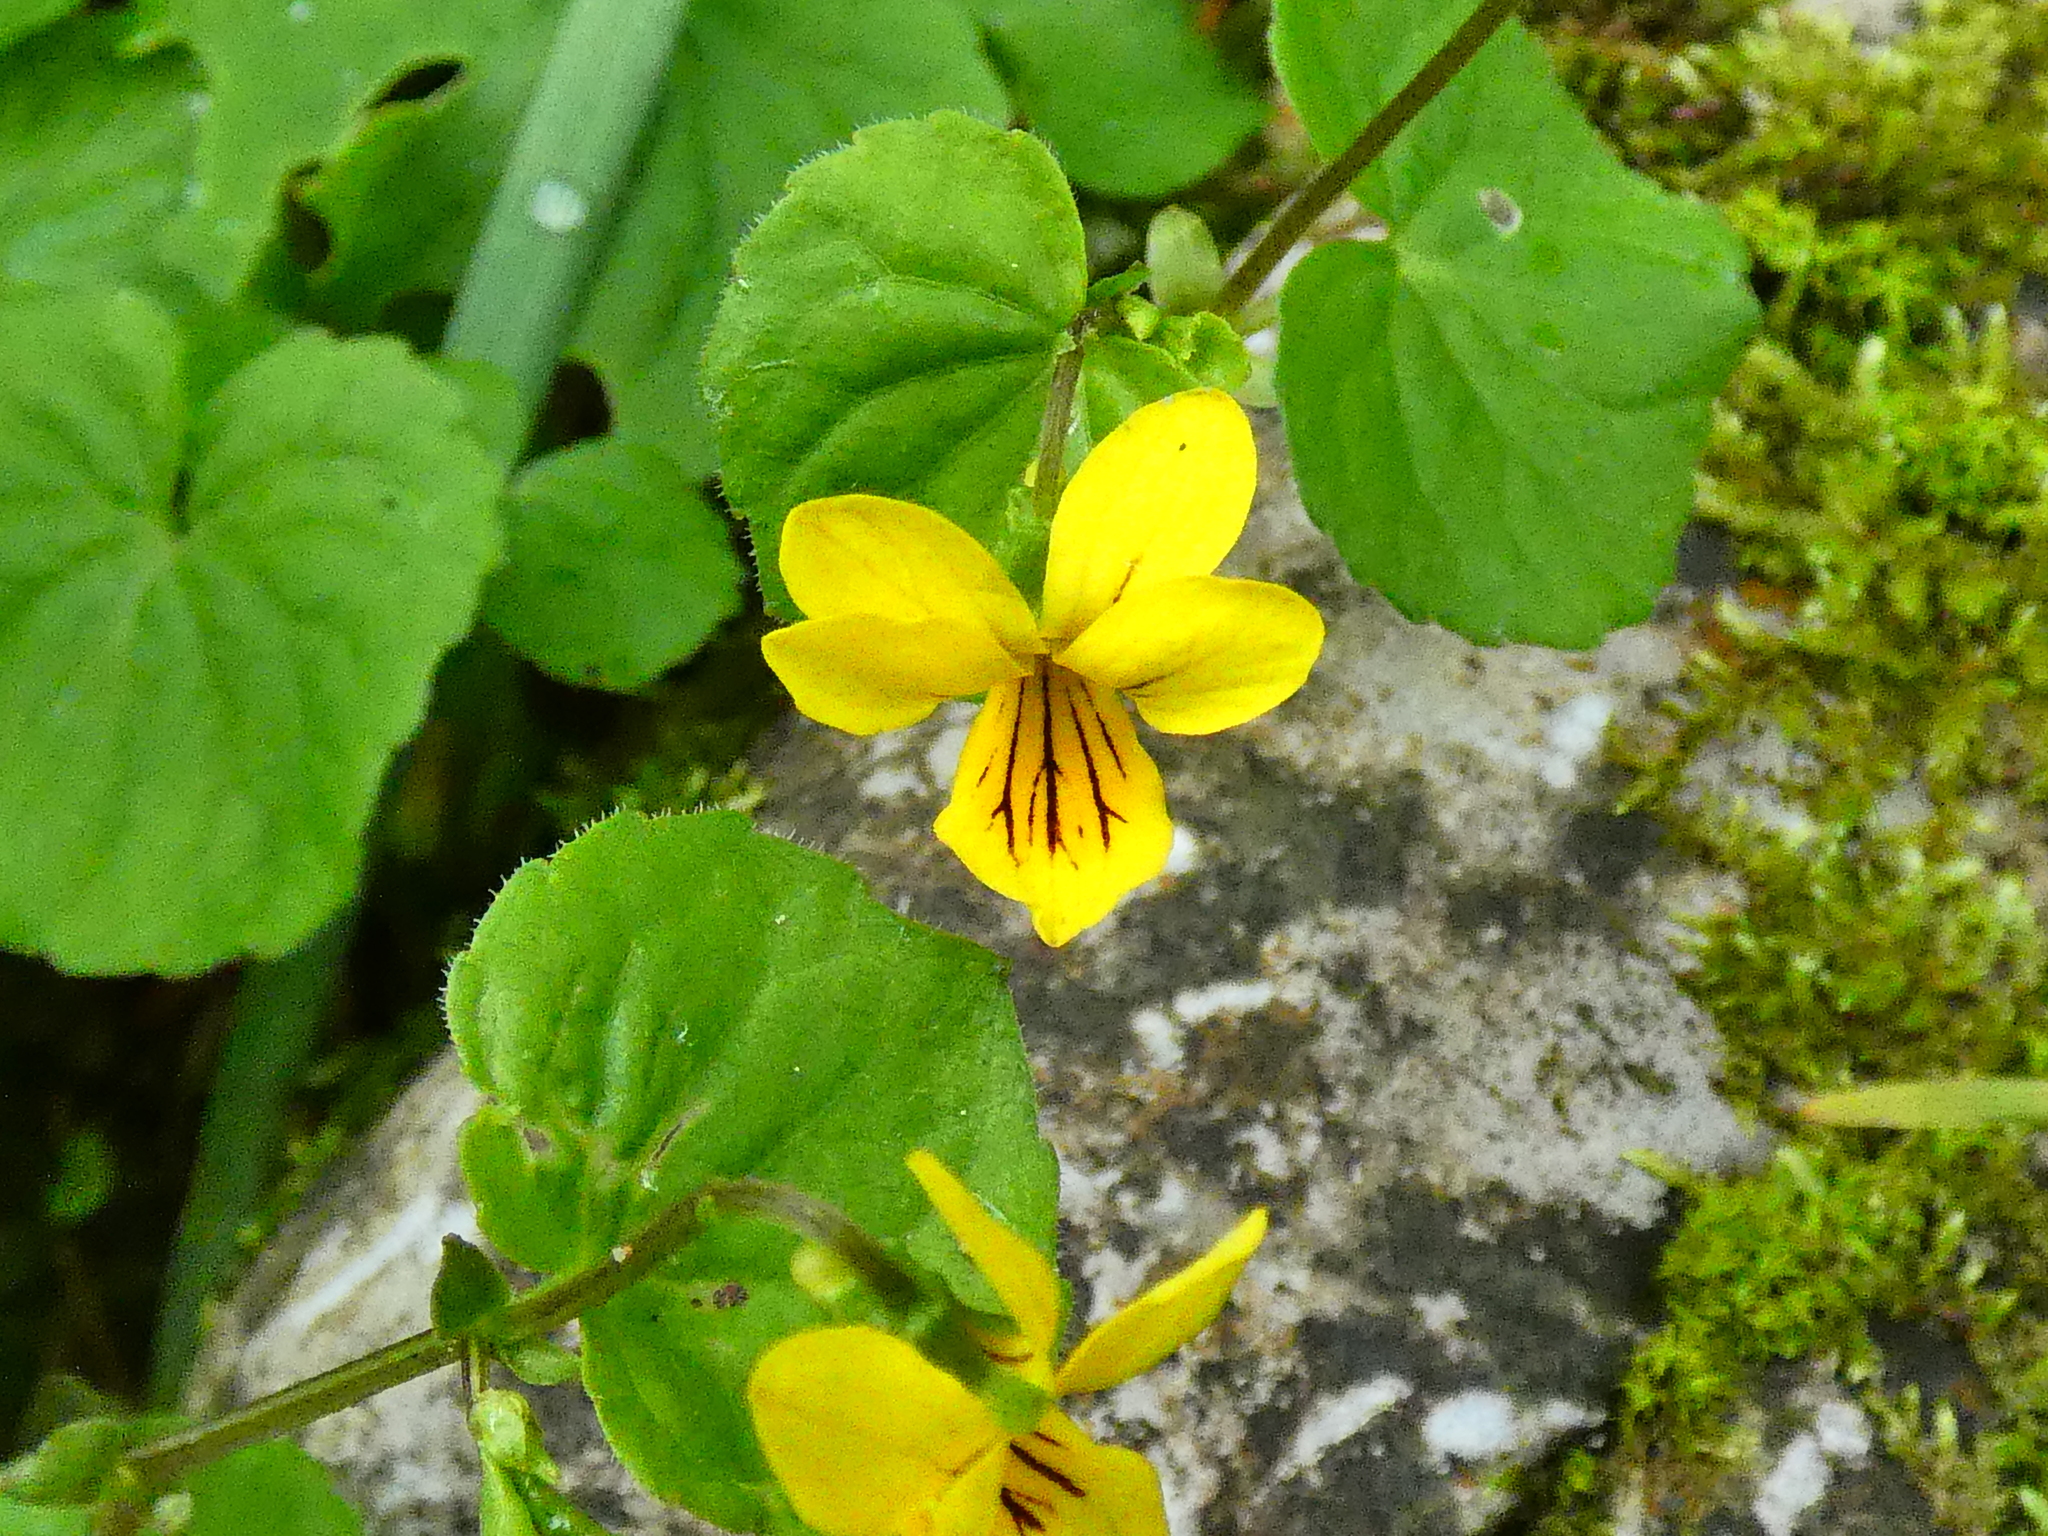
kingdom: Plantae
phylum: Tracheophyta
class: Magnoliopsida
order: Malpighiales
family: Violaceae
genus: Viola
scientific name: Viola biflora
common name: Alpine yellow violet
